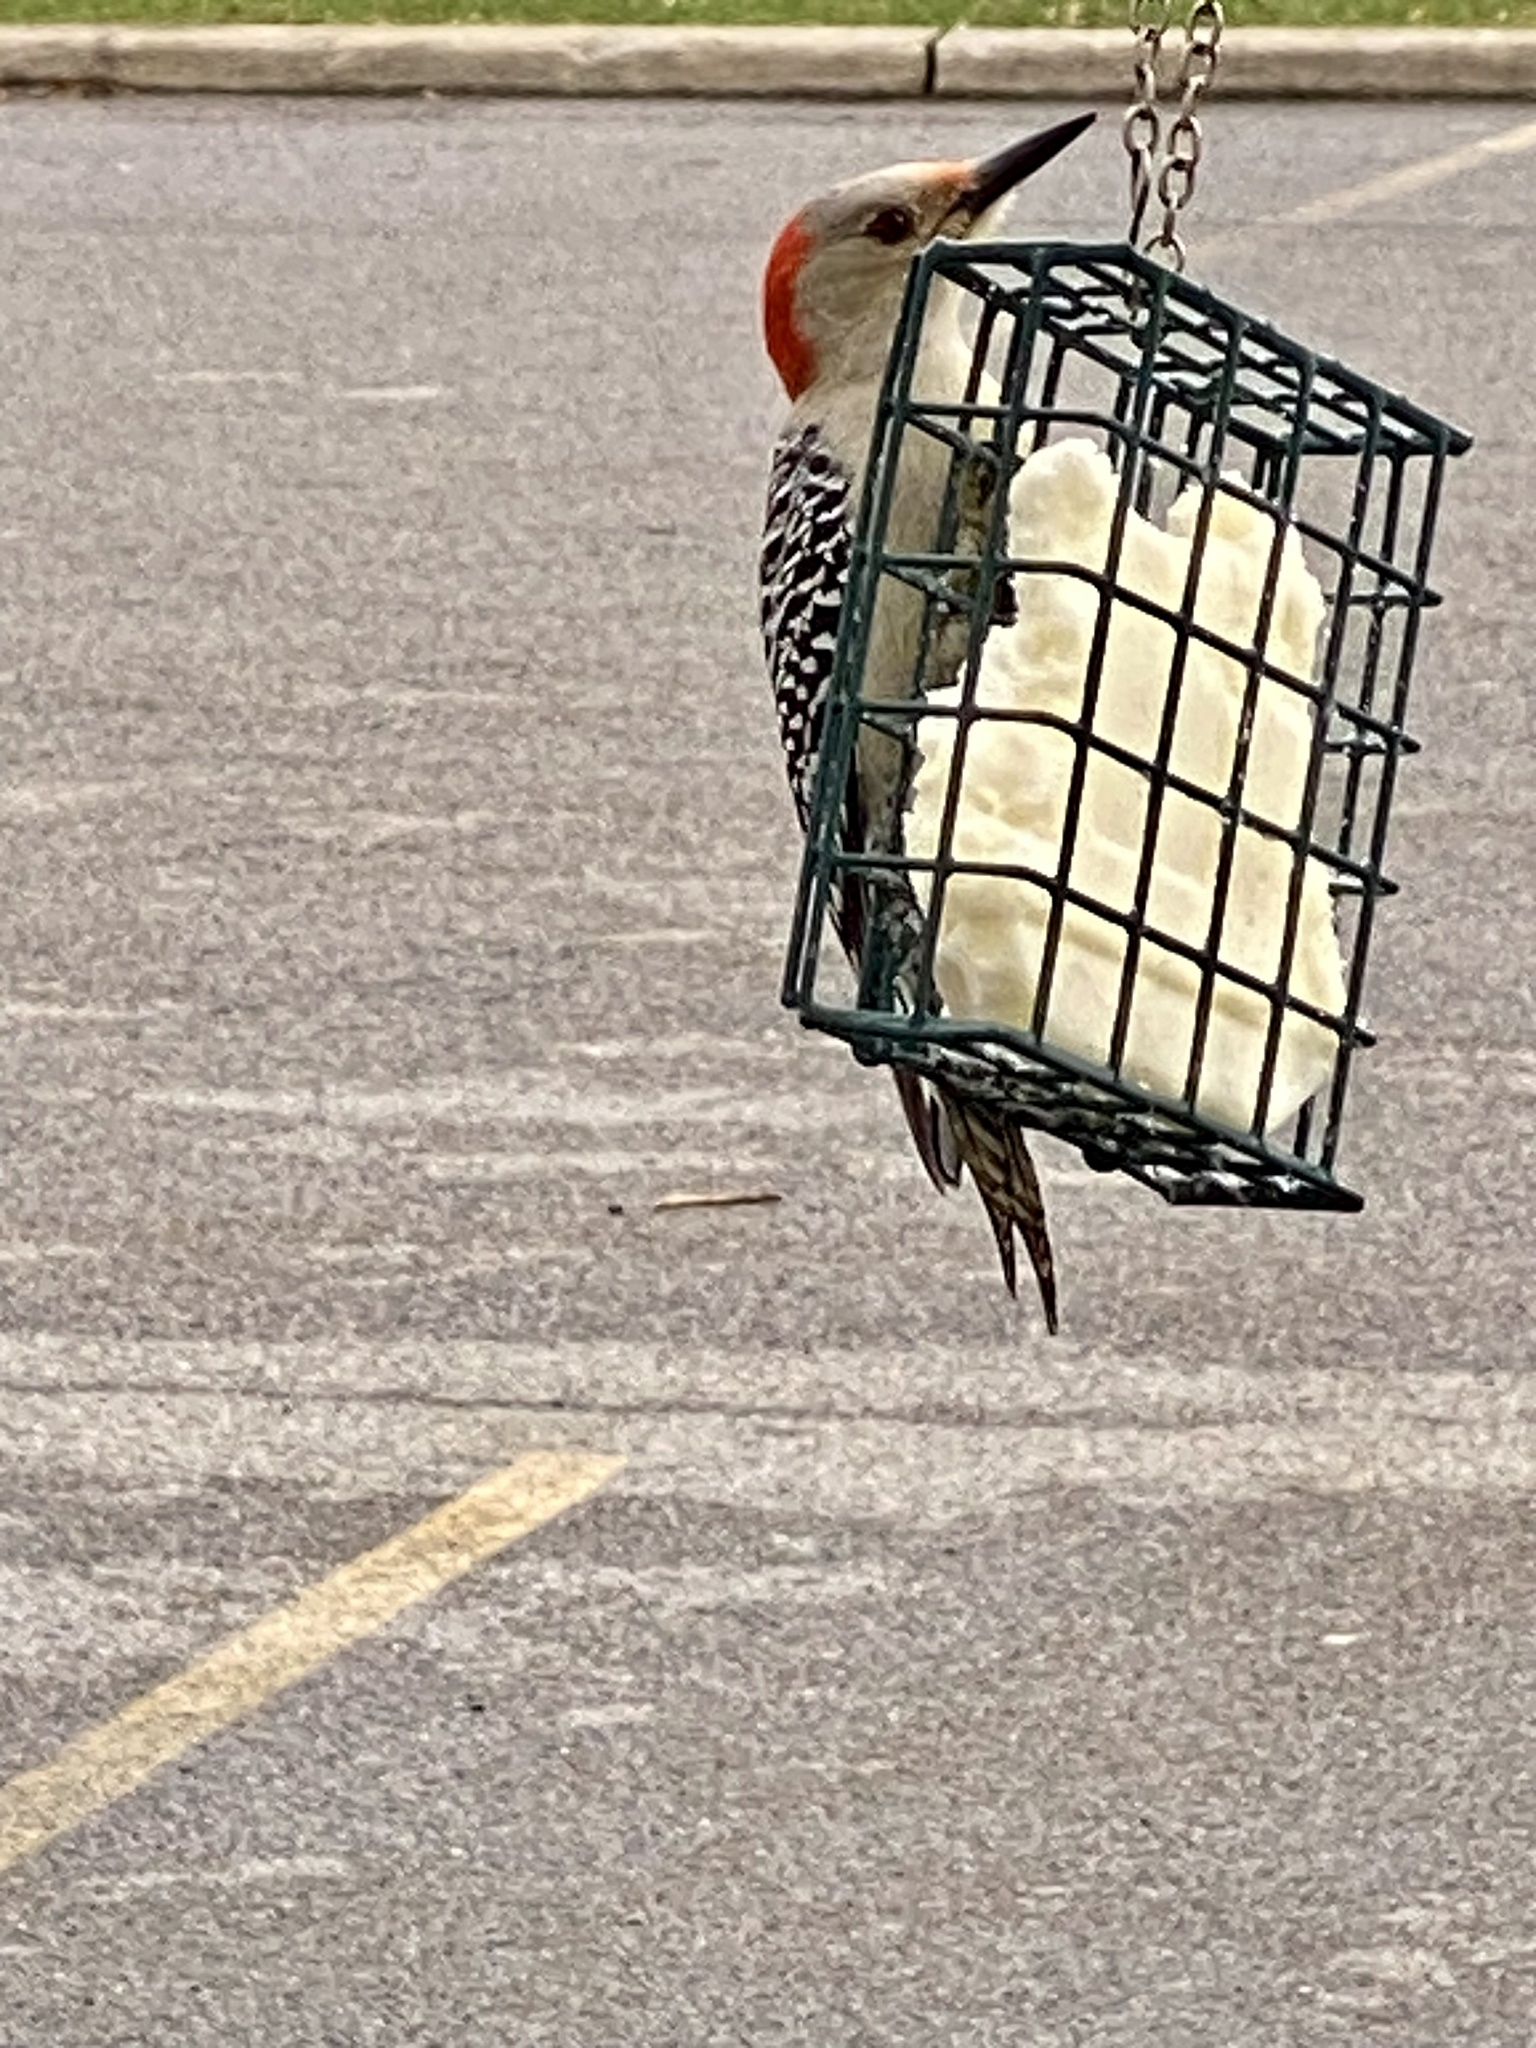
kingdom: Animalia
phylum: Chordata
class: Aves
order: Piciformes
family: Picidae
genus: Melanerpes
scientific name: Melanerpes carolinus
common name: Red-bellied woodpecker
